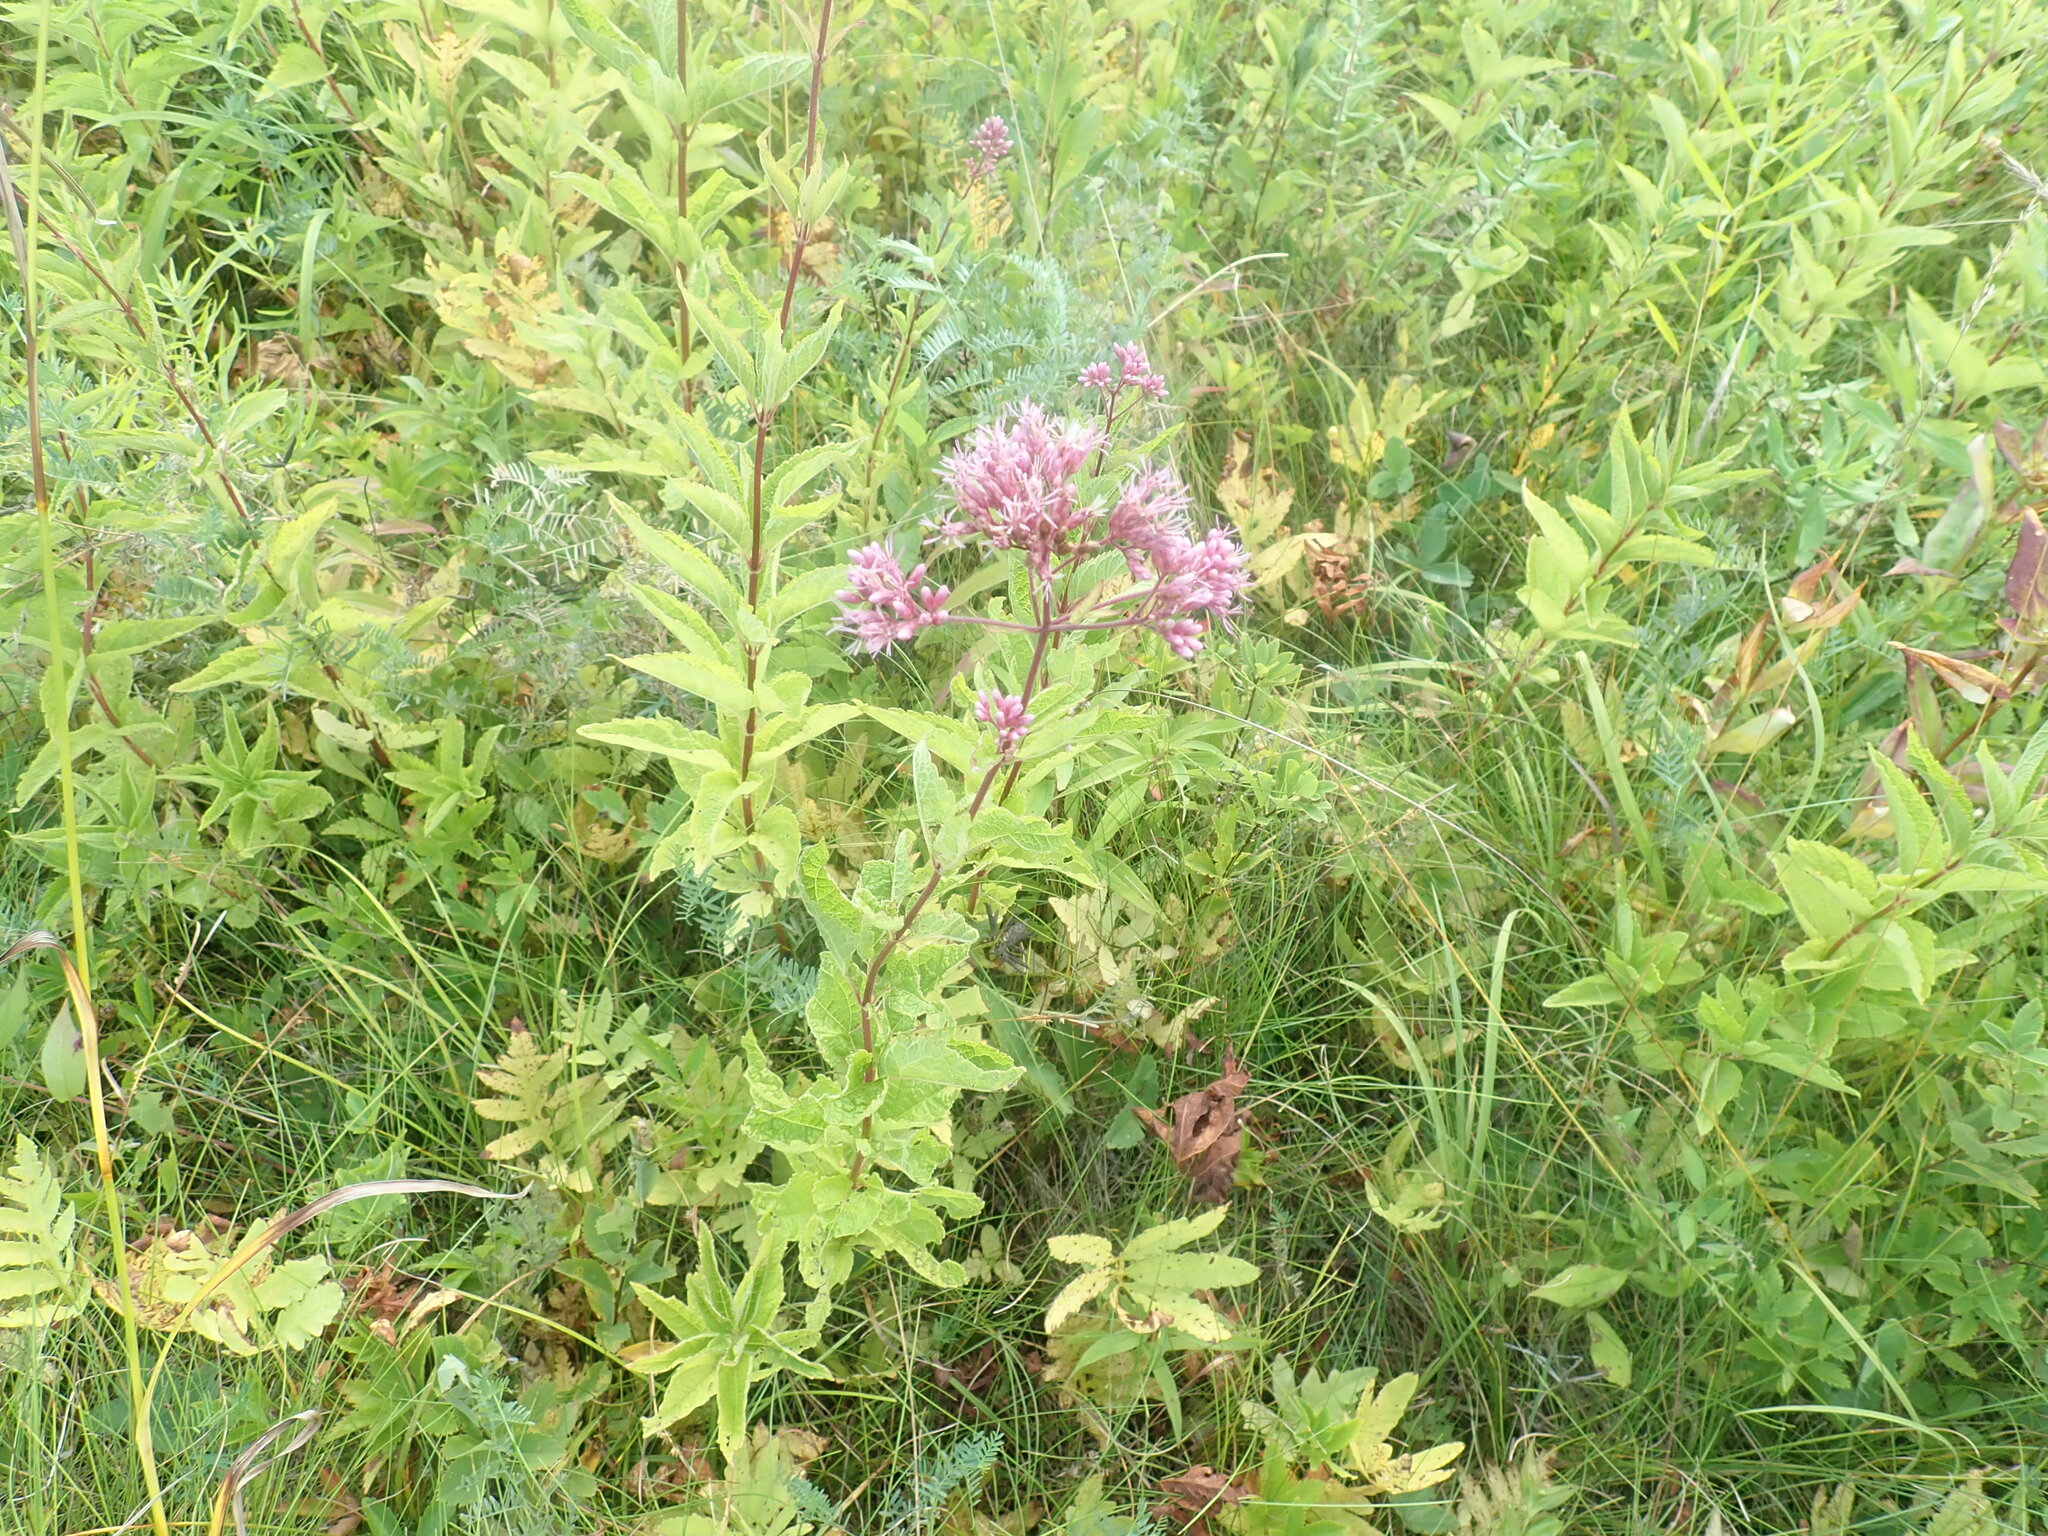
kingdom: Plantae
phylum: Tracheophyta
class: Magnoliopsida
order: Asterales
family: Asteraceae
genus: Eutrochium
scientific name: Eutrochium
